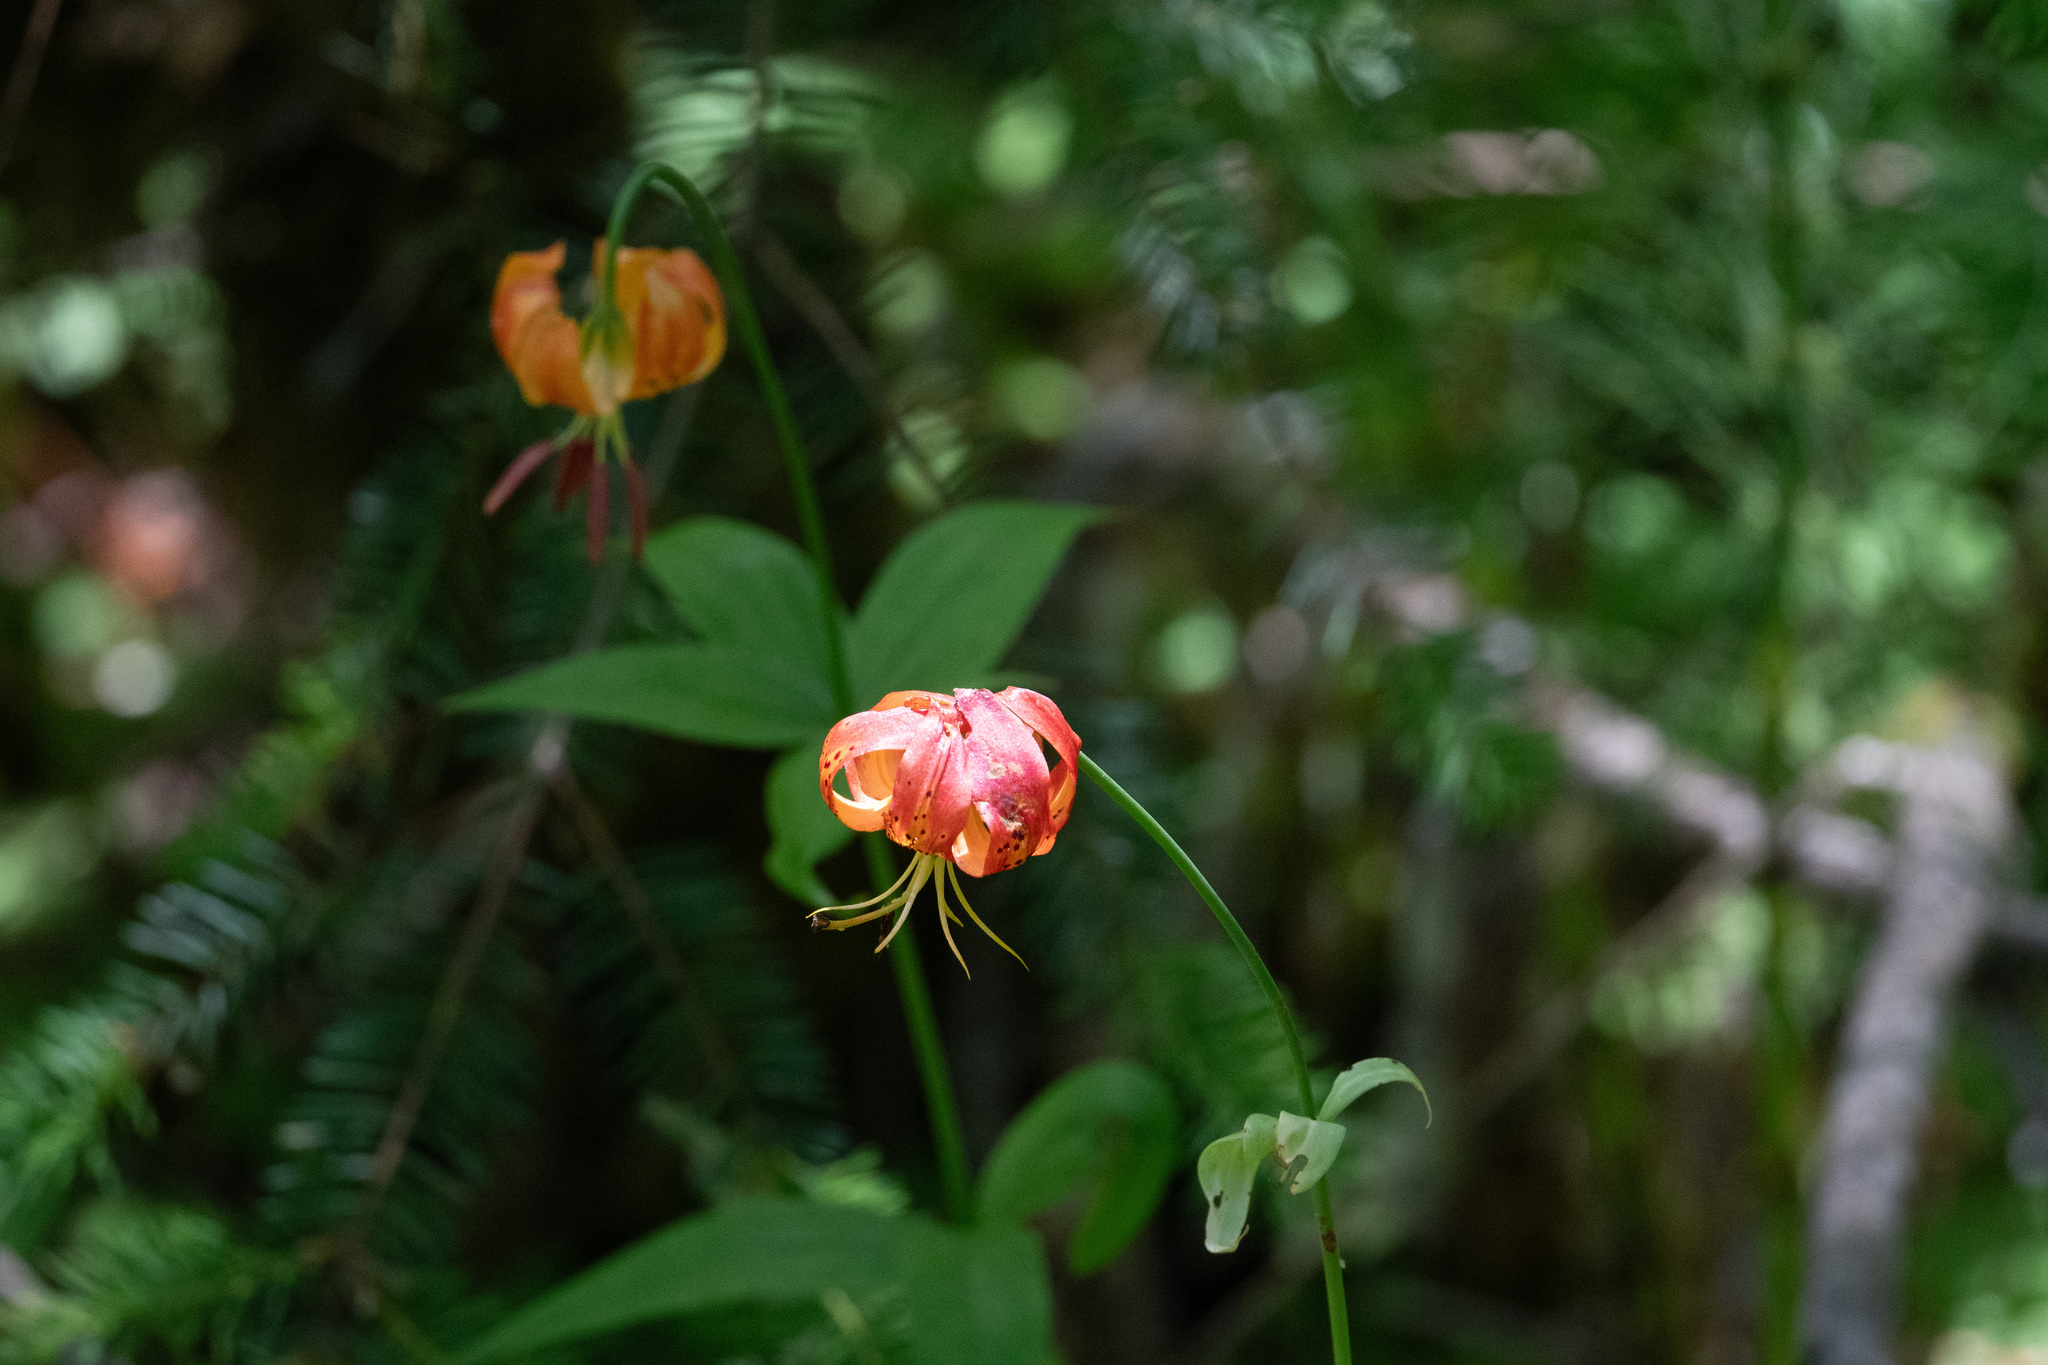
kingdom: Plantae
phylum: Tracheophyta
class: Liliopsida
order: Liliales
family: Liliaceae
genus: Lilium
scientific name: Lilium pardalinum
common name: Panther lily
